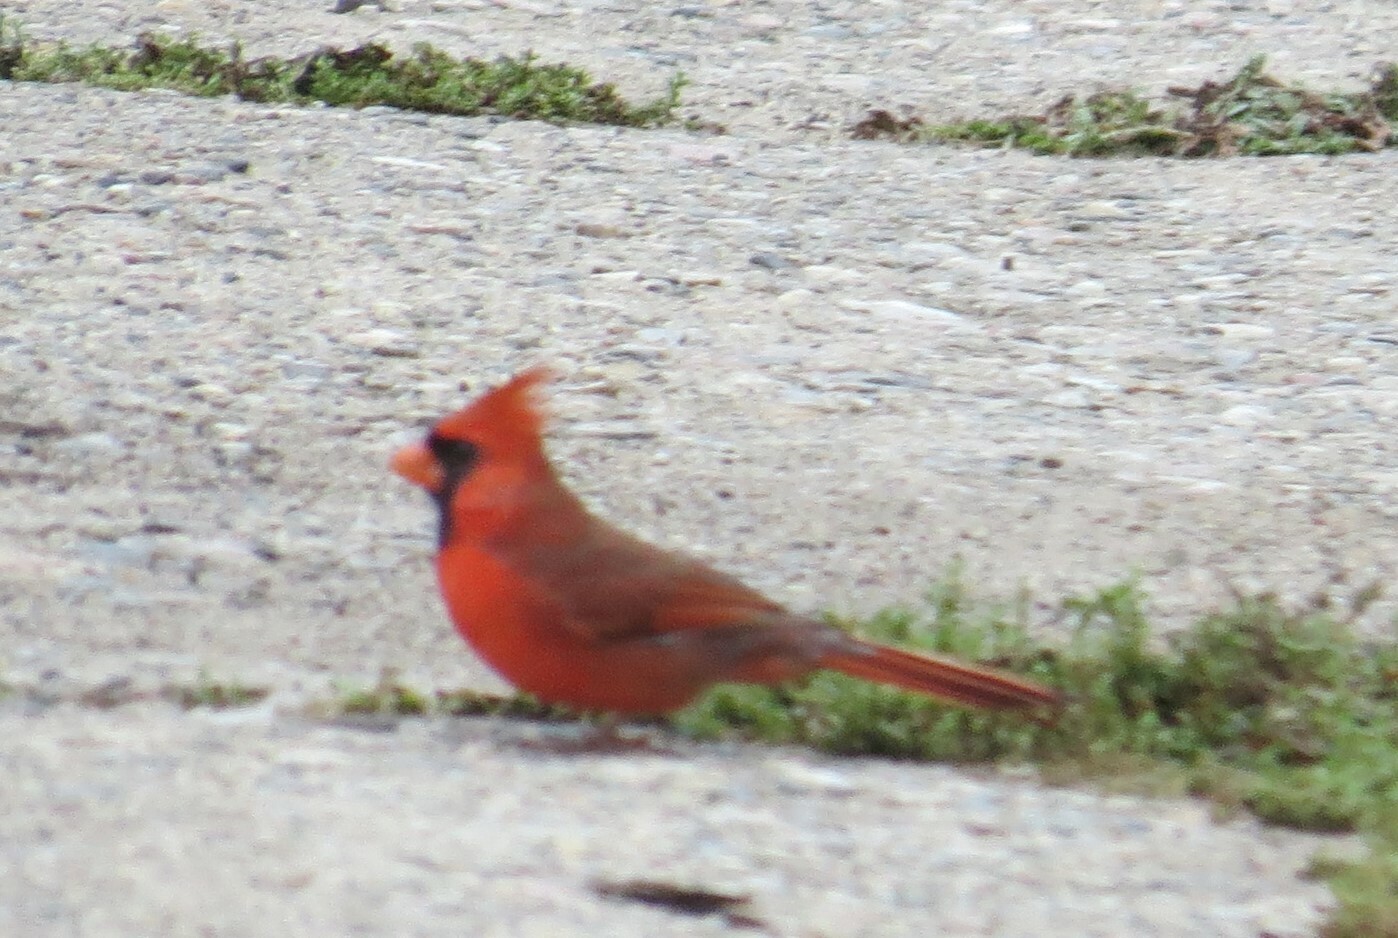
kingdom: Animalia
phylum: Chordata
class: Aves
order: Passeriformes
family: Cardinalidae
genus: Cardinalis
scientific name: Cardinalis cardinalis
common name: Northern cardinal
